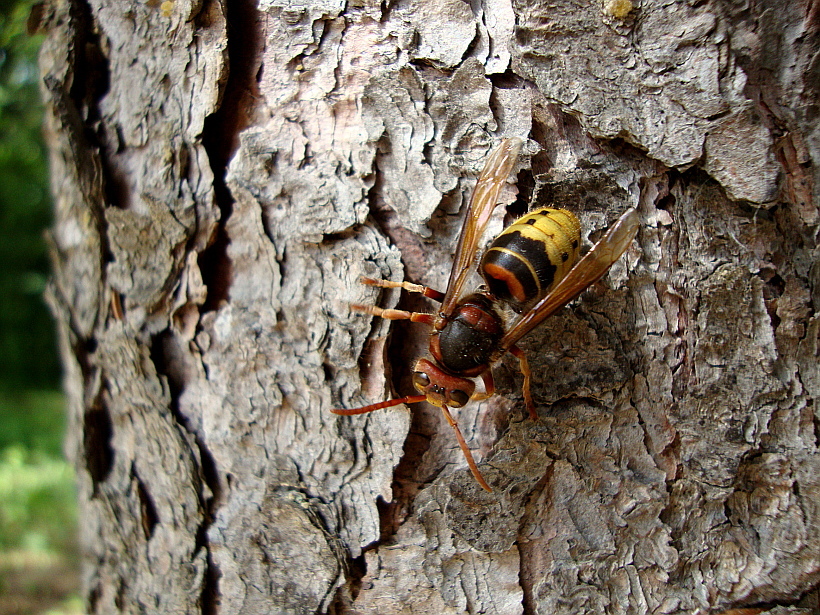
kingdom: Animalia
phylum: Arthropoda
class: Insecta
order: Hymenoptera
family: Vespidae
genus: Vespa
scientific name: Vespa crabro
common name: Hornet
